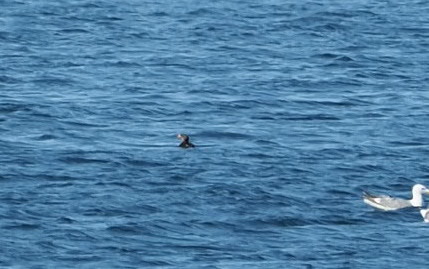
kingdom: Animalia
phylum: Chordata
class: Aves
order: Charadriiformes
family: Alcidae
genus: Cerorhinca
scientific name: Cerorhinca monocerata
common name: Rhinoceros auklet
